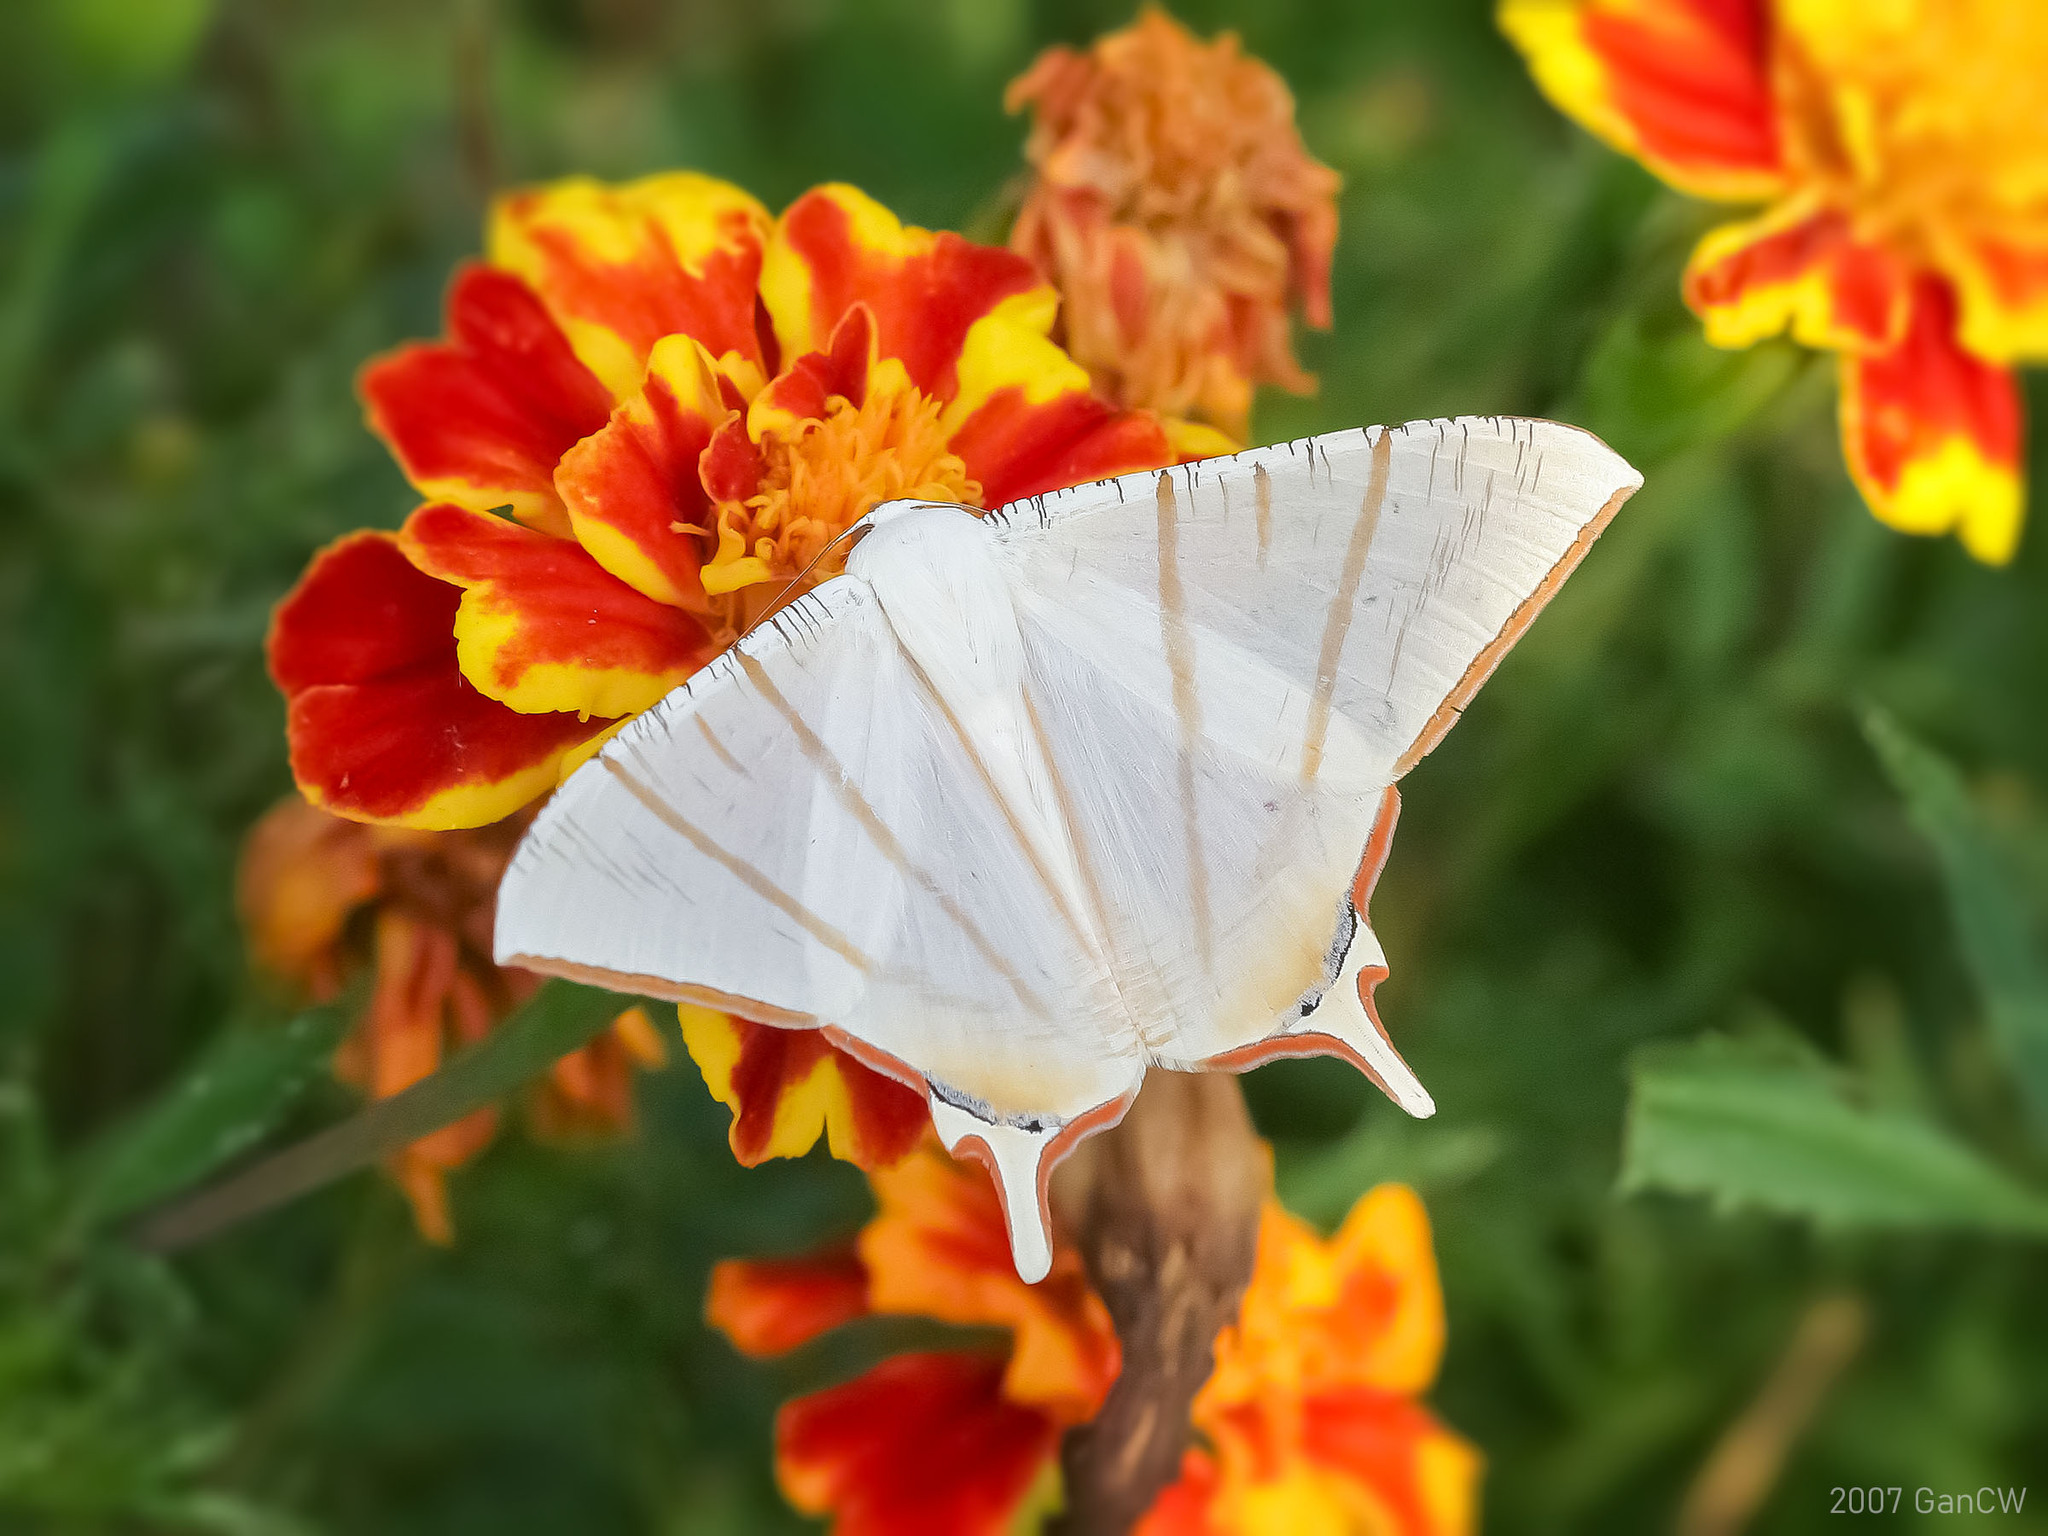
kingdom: Animalia
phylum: Arthropoda
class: Insecta
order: Lepidoptera
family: Geometridae
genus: Ourapteryx
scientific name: Ourapteryx claretta
